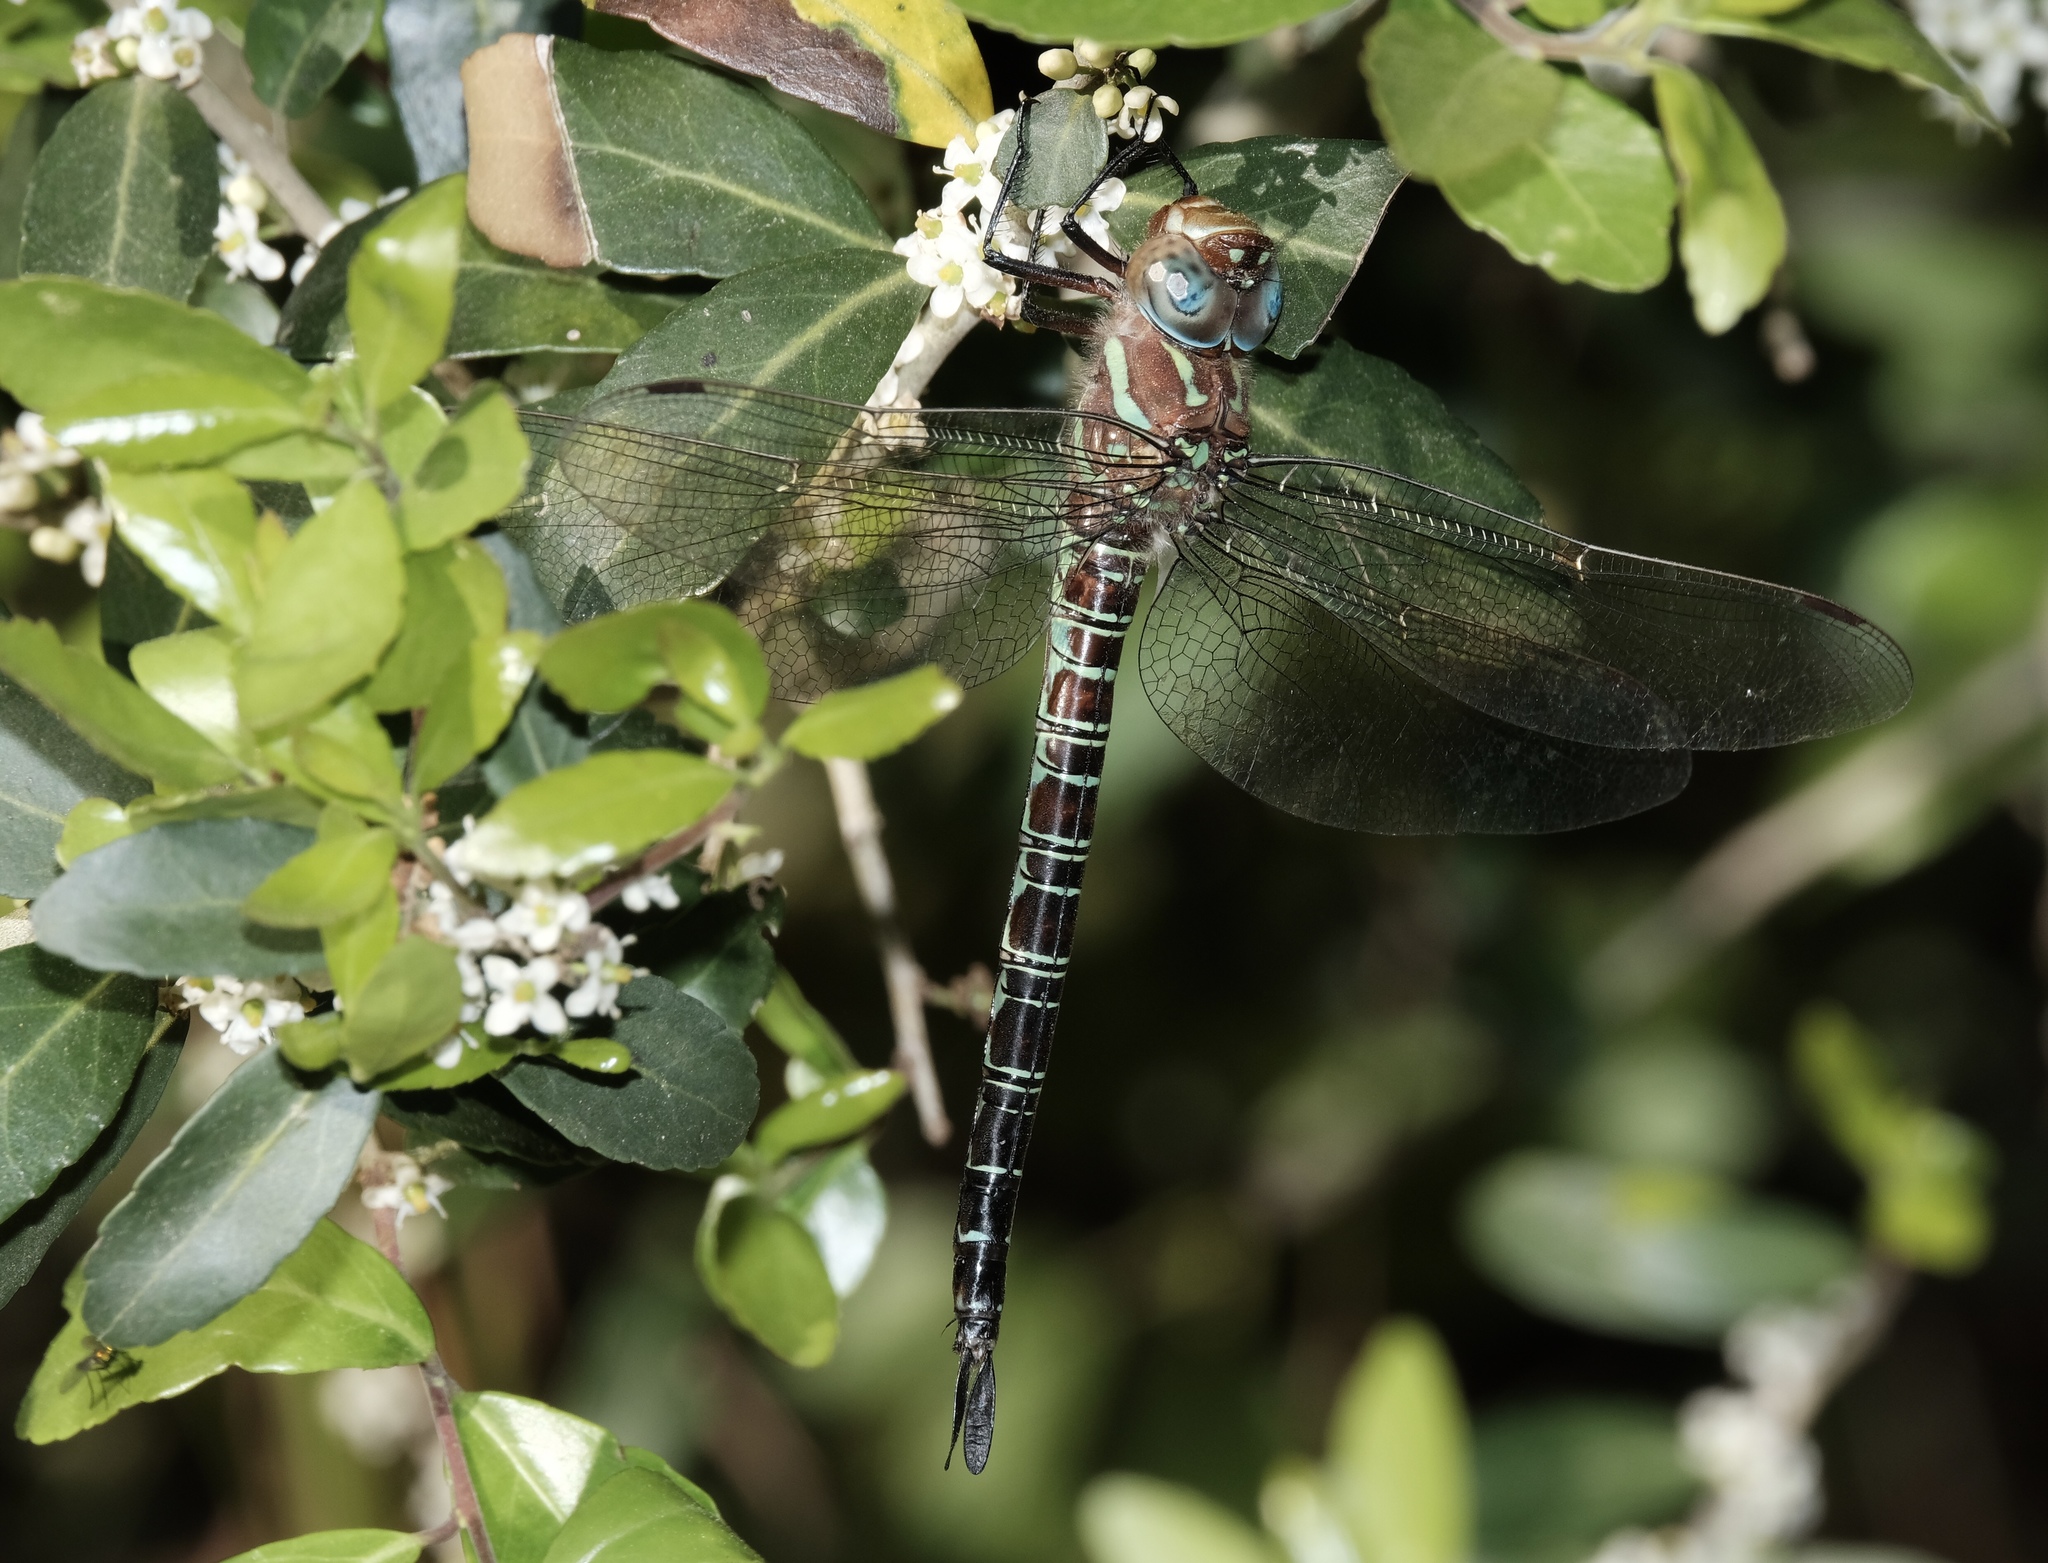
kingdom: Animalia
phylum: Arthropoda
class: Insecta
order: Odonata
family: Aeshnidae
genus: Epiaeschna
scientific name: Epiaeschna heros
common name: Swamp darner
